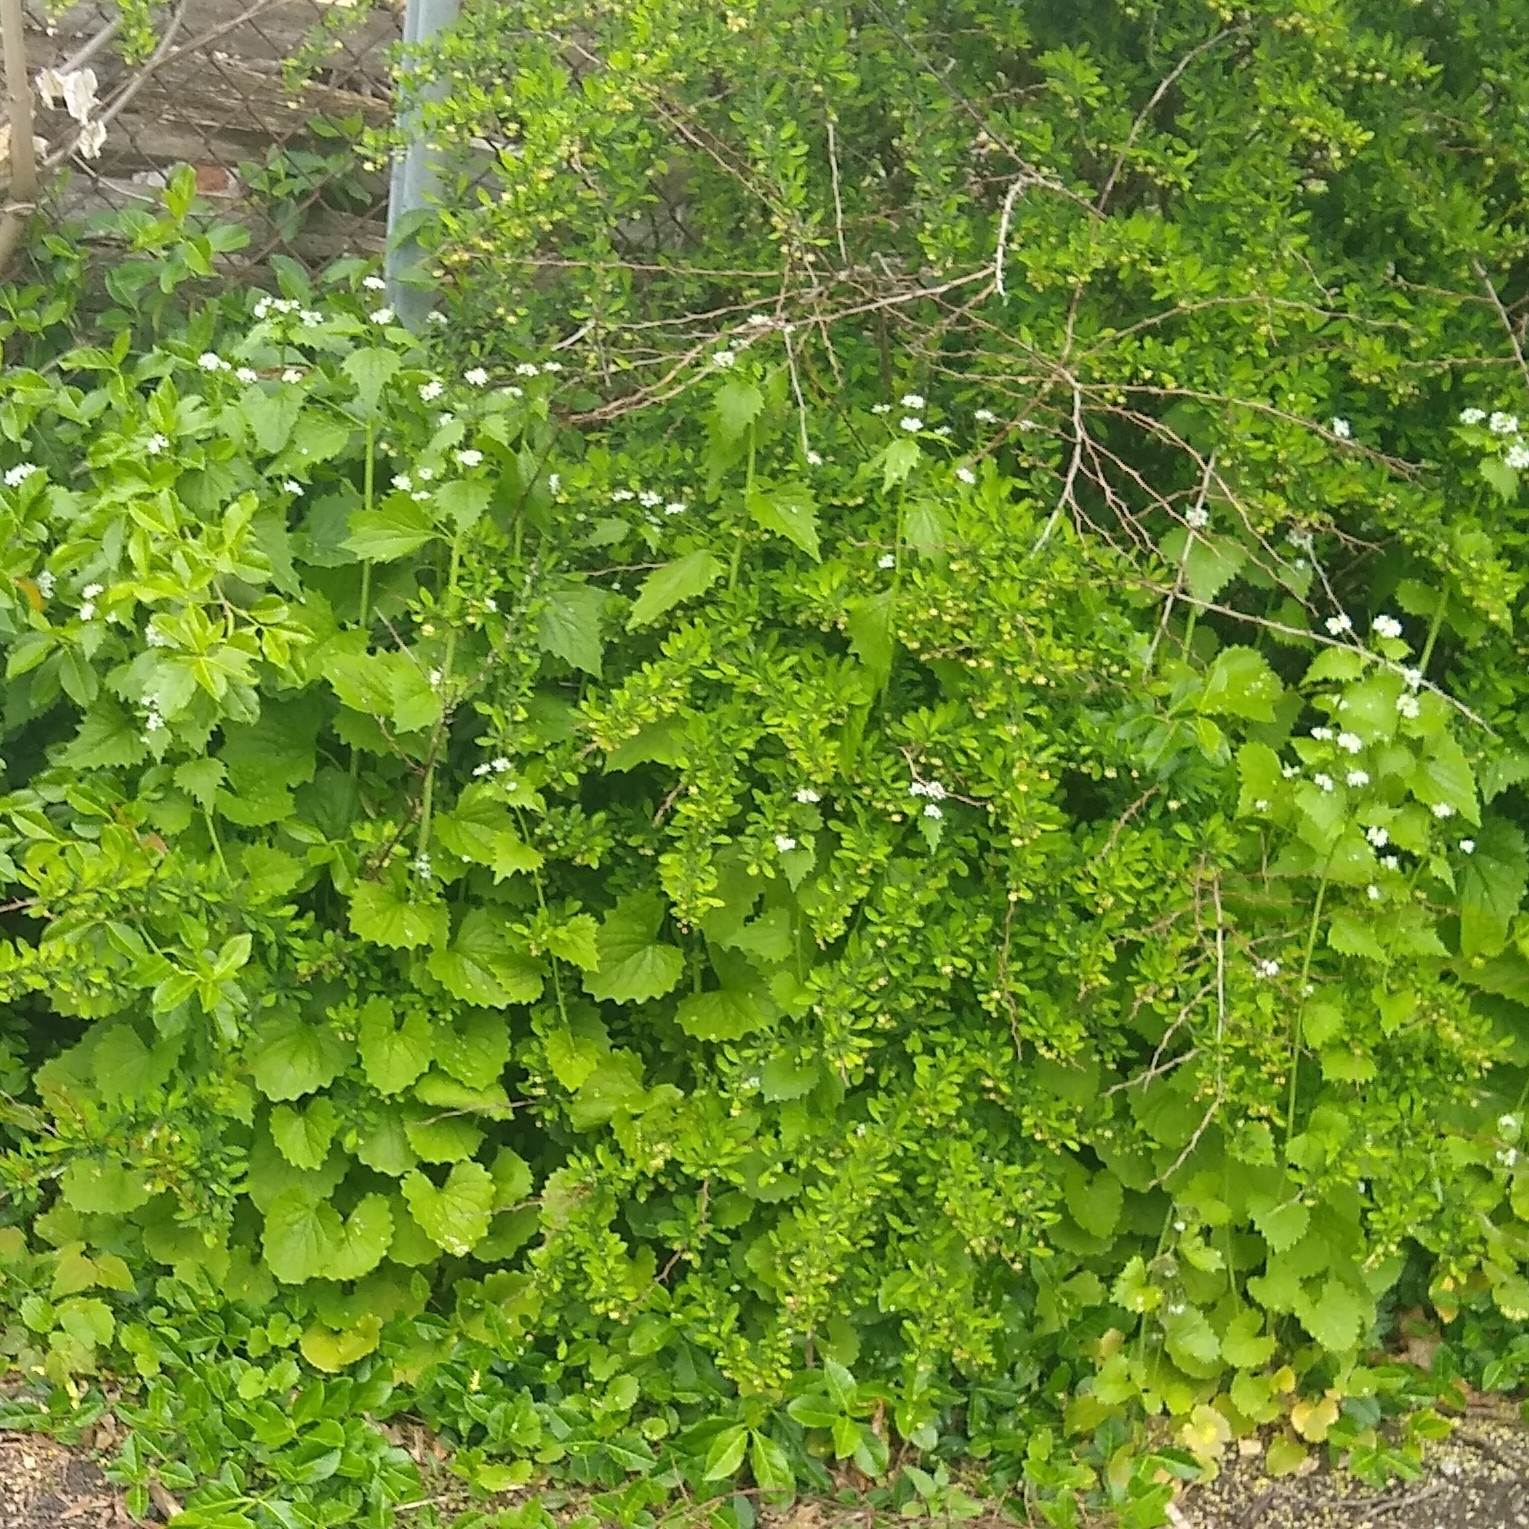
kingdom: Plantae
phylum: Tracheophyta
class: Magnoliopsida
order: Brassicales
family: Brassicaceae
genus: Alliaria
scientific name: Alliaria petiolata
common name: Garlic mustard
